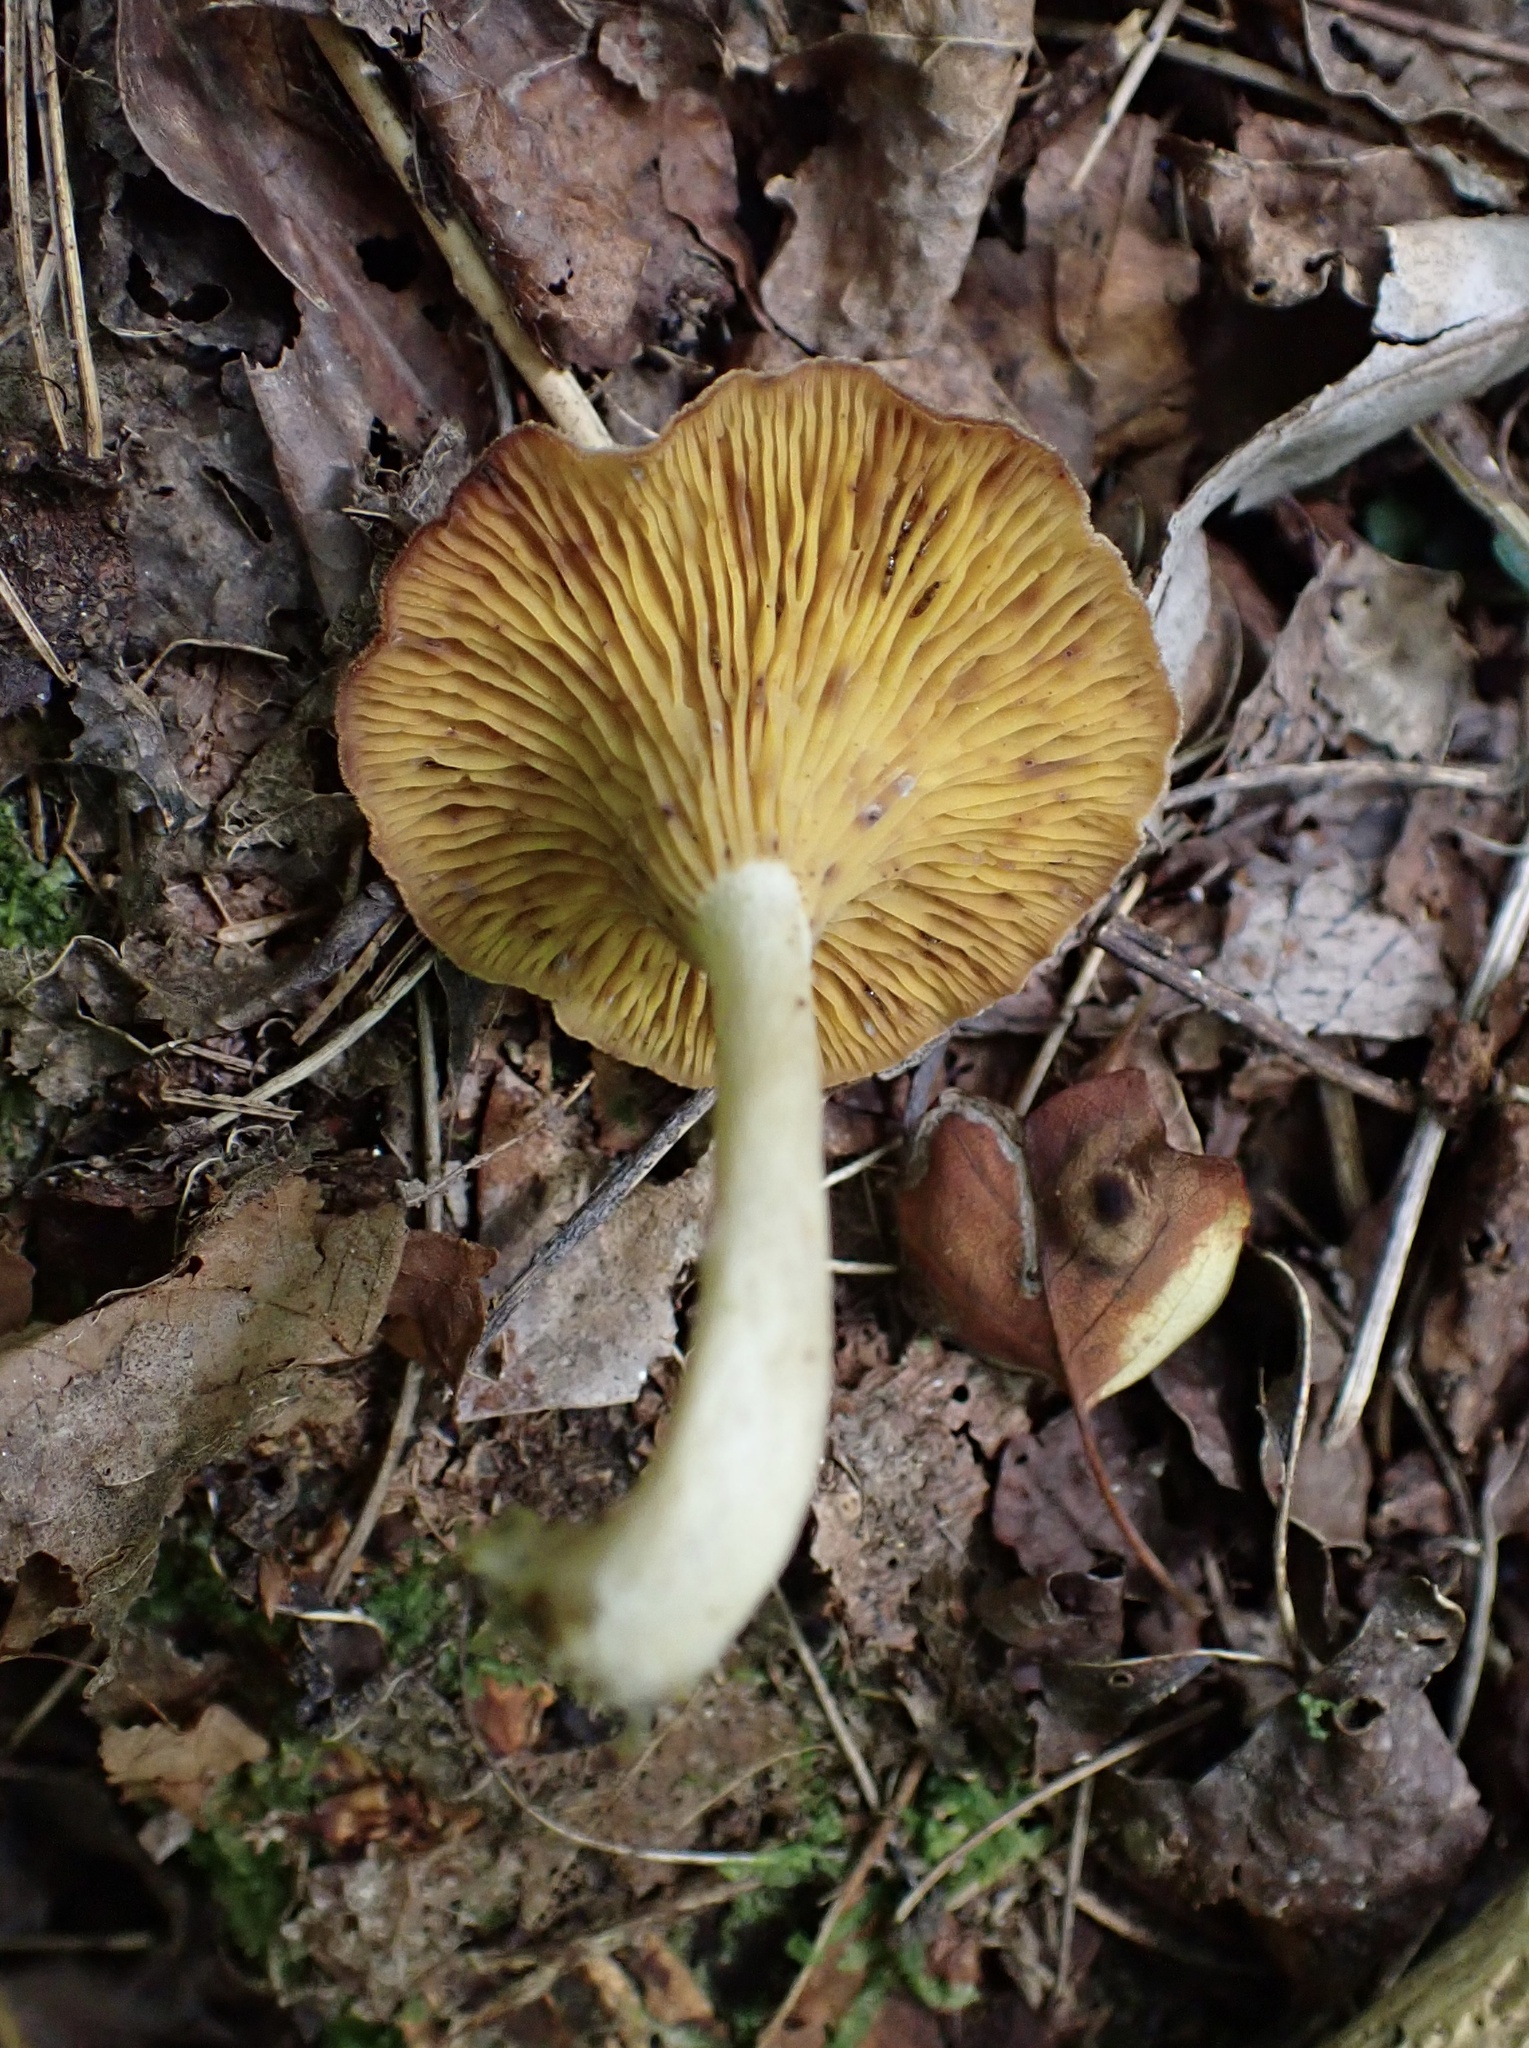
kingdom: Fungi
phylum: Basidiomycota
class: Agaricomycetes
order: Agaricales
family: Hygrophoraceae
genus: Pseudoarmillariella
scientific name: Pseudoarmillariella ectypoides
